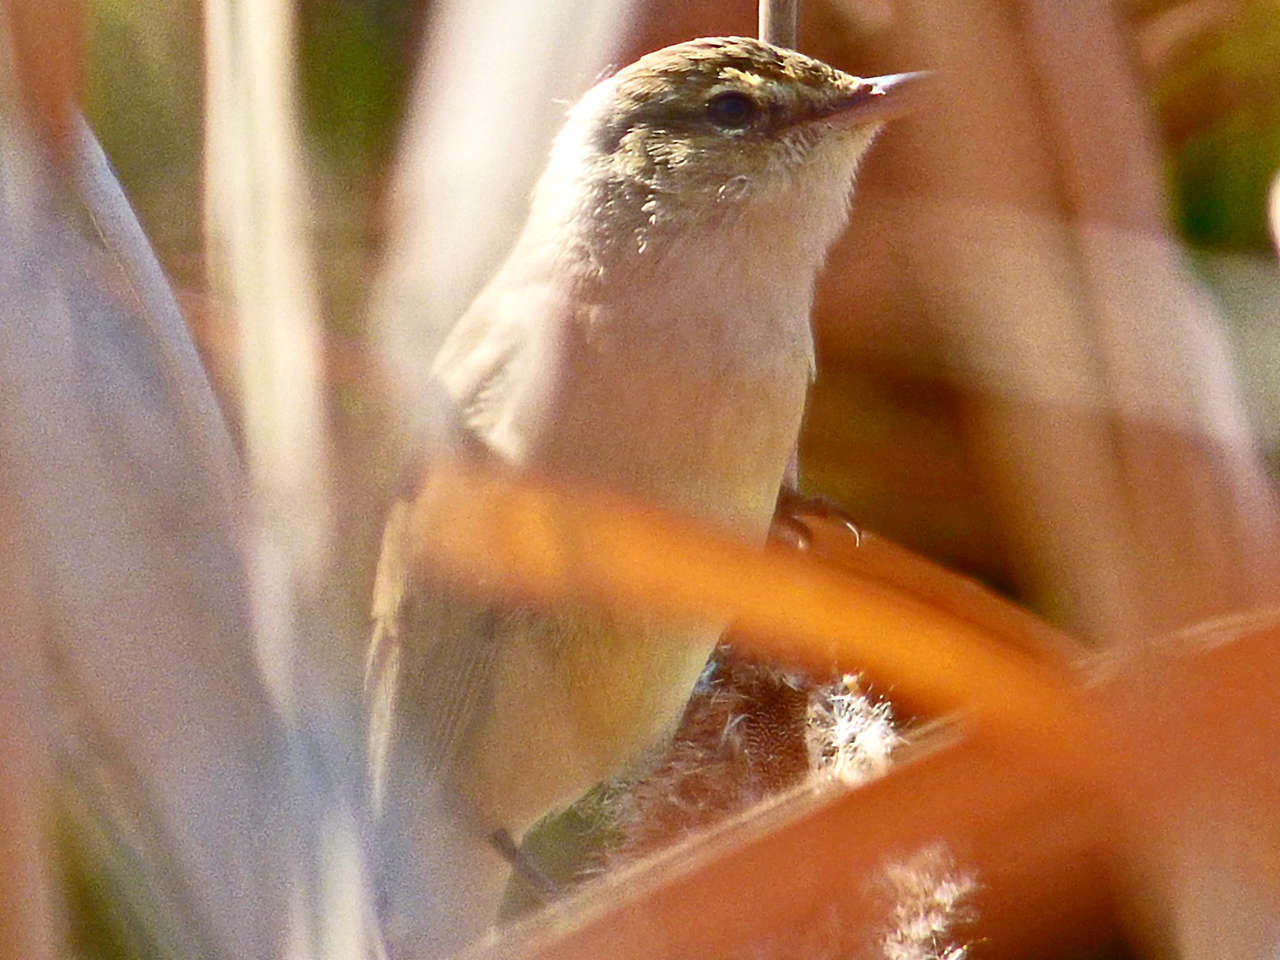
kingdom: Animalia
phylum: Chordata
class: Aves
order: Passeriformes
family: Acrocephalidae
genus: Acrocephalus
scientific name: Acrocephalus australis
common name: Australian reed warbler
